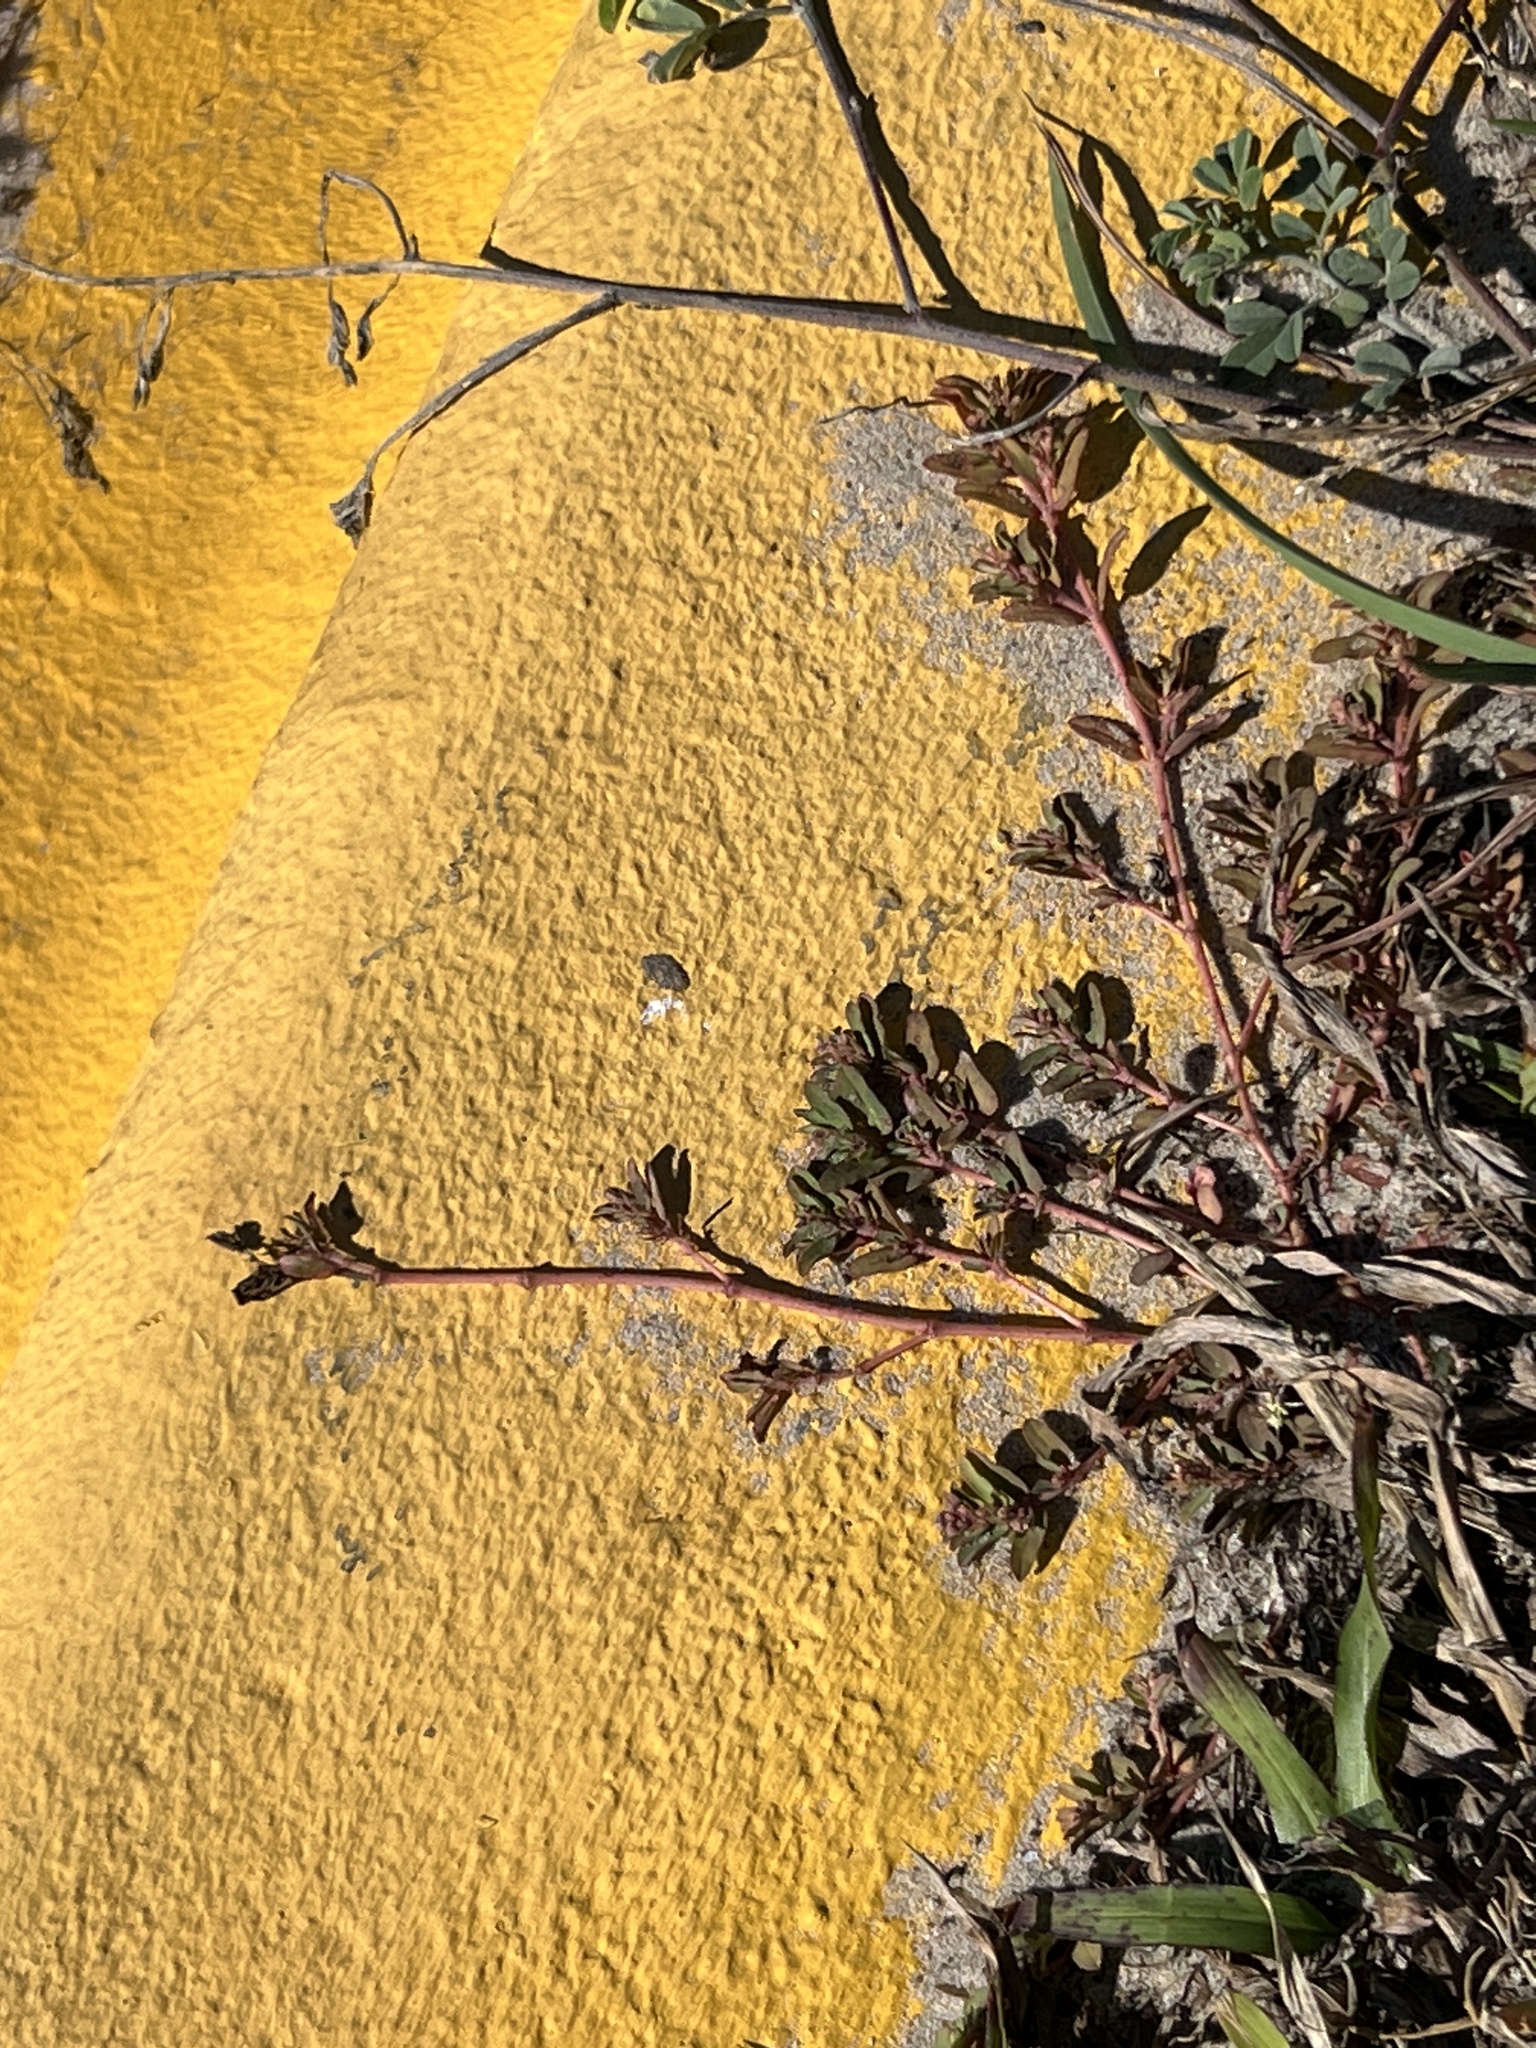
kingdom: Plantae
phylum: Tracheophyta
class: Magnoliopsida
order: Malpighiales
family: Euphorbiaceae
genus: Euphorbia
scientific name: Euphorbia maculata
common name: Spotted spurge
